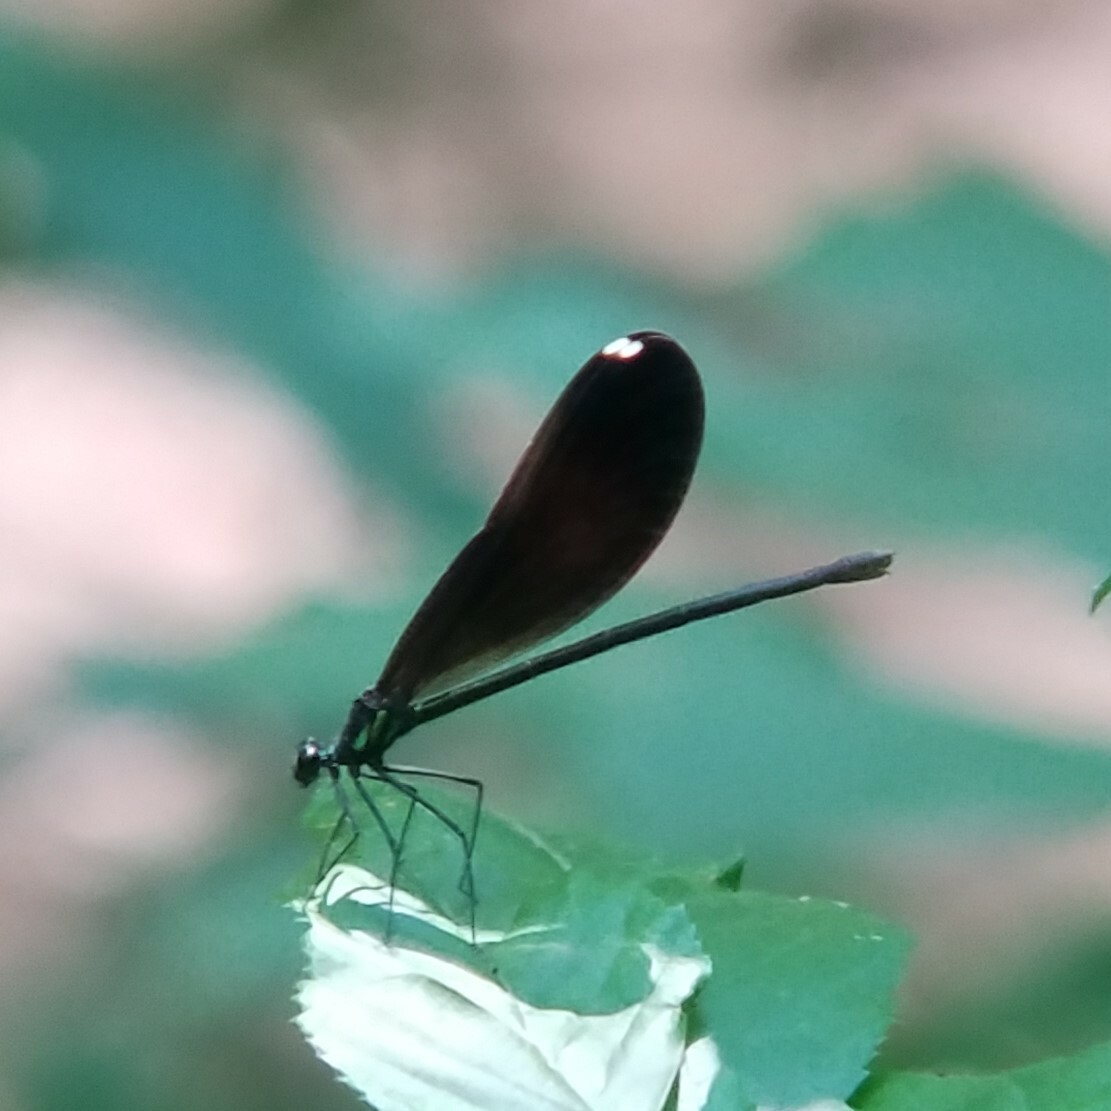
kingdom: Animalia
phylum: Arthropoda
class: Insecta
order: Odonata
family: Calopterygidae
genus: Calopteryx
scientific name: Calopteryx maculata
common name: Ebony jewelwing
